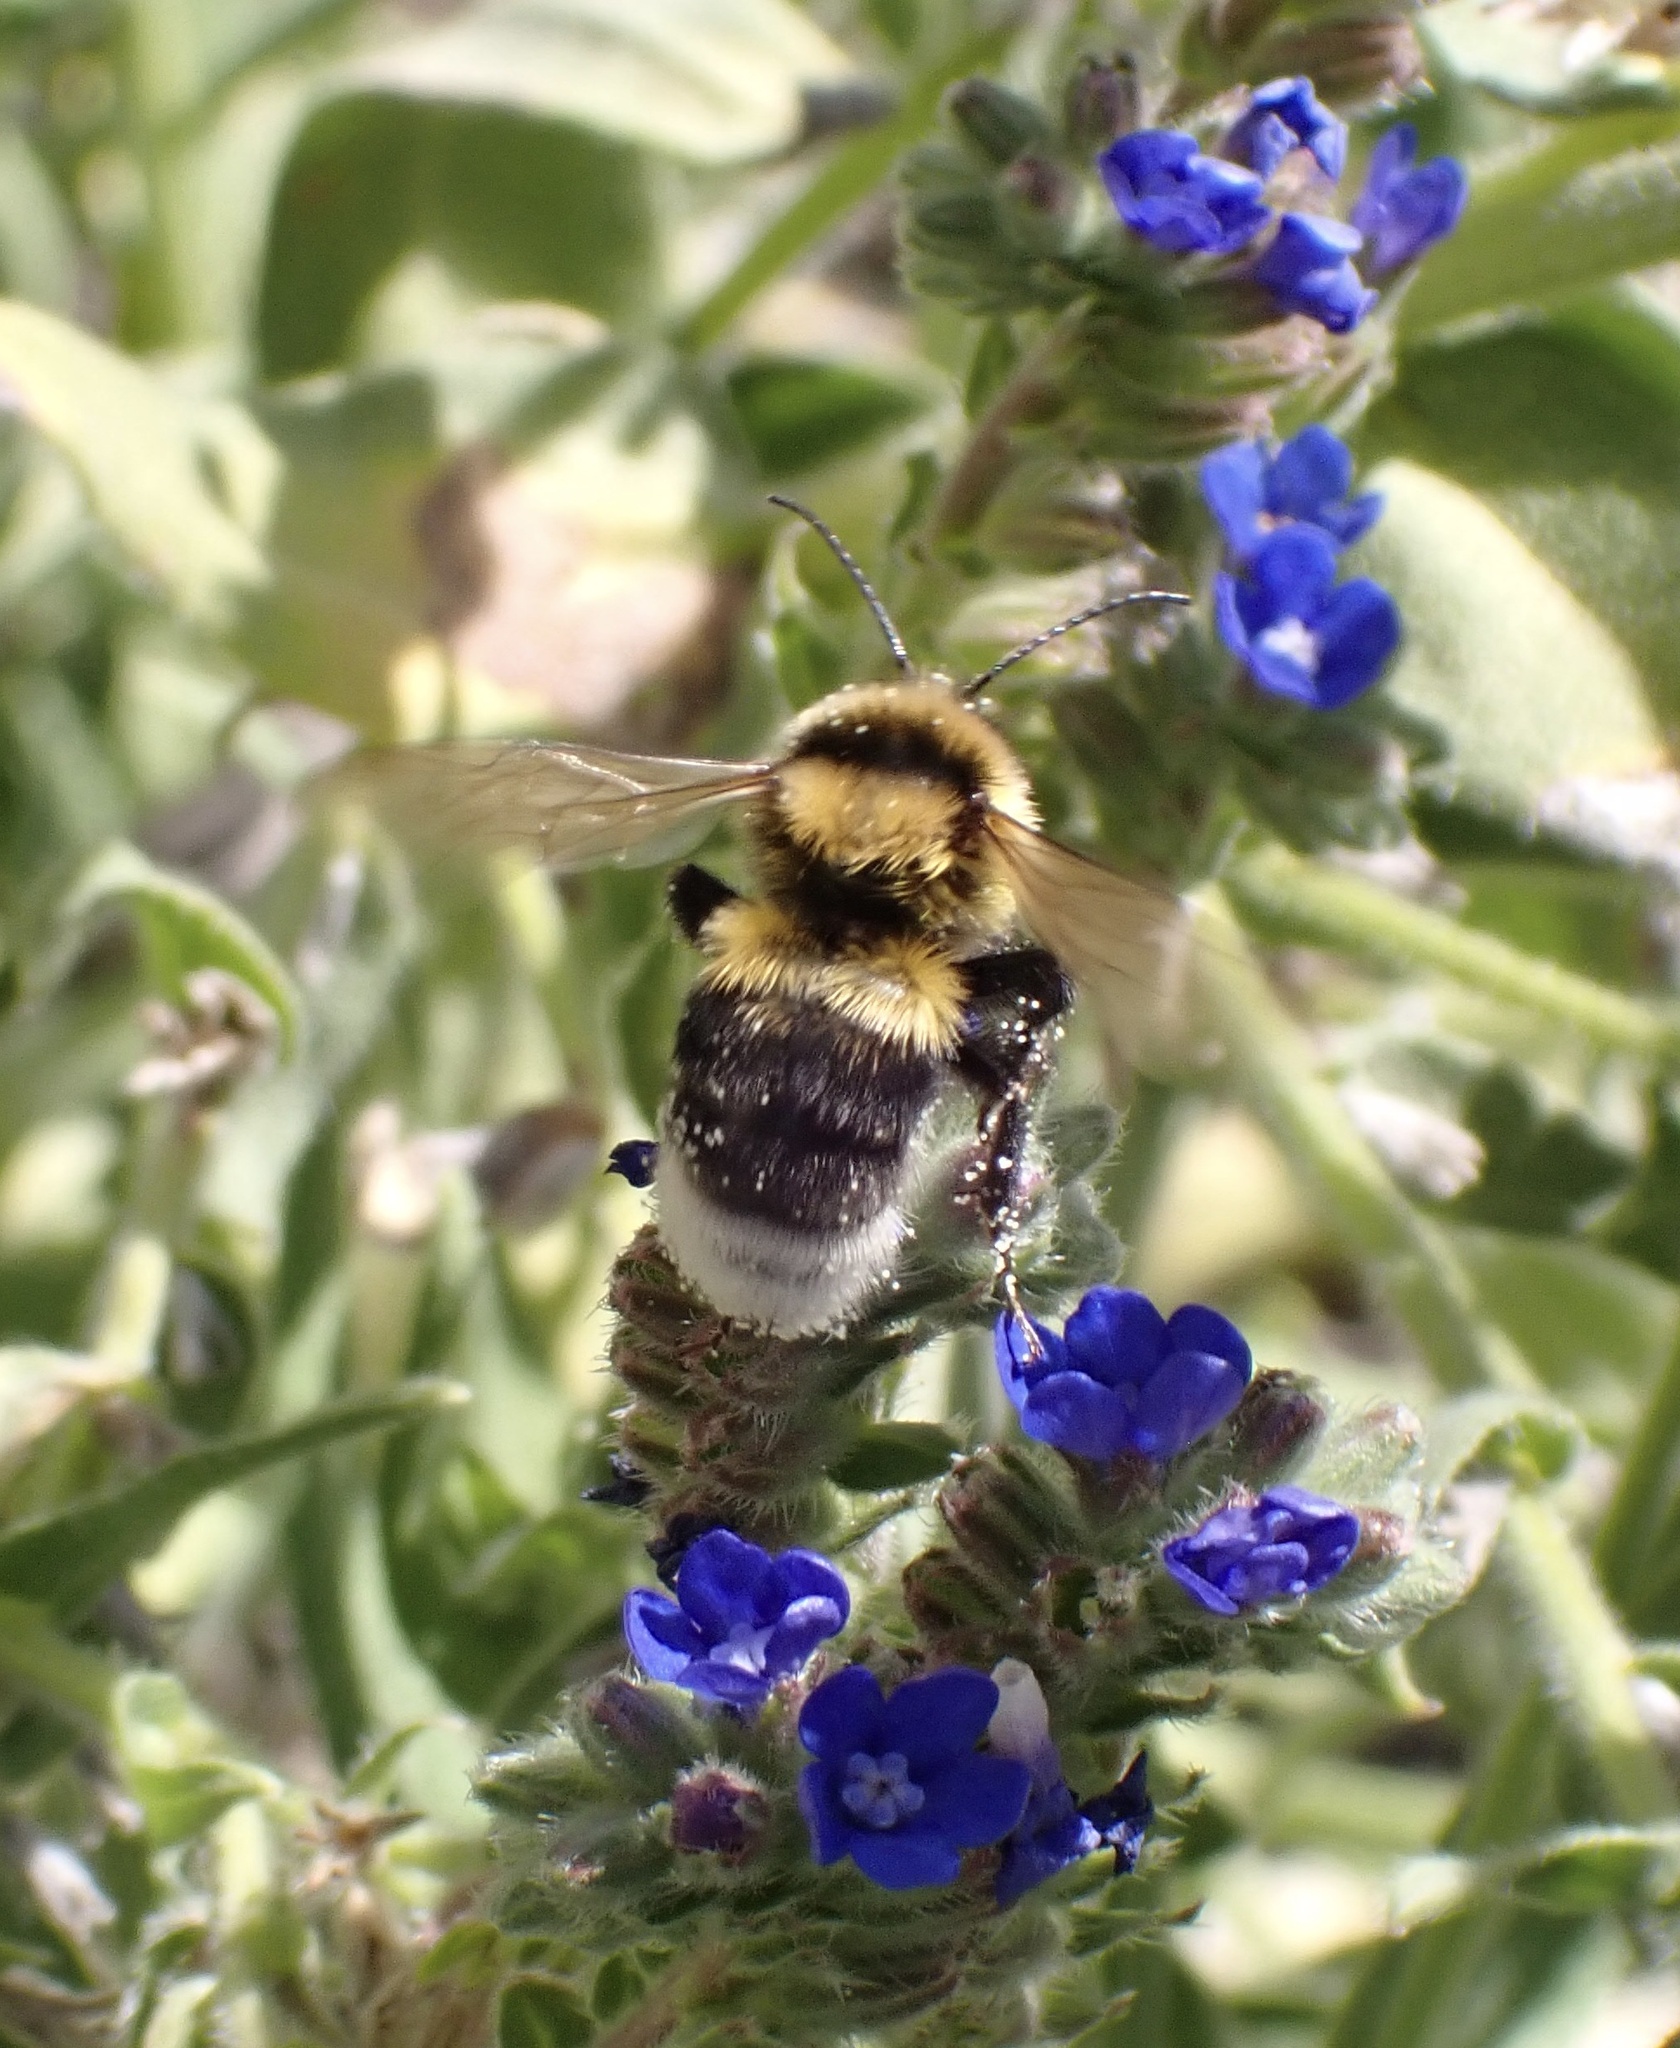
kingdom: Animalia
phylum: Arthropoda
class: Insecta
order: Hymenoptera
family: Apidae
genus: Bombus
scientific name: Bombus ruderatus
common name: Large garden bumblebee
